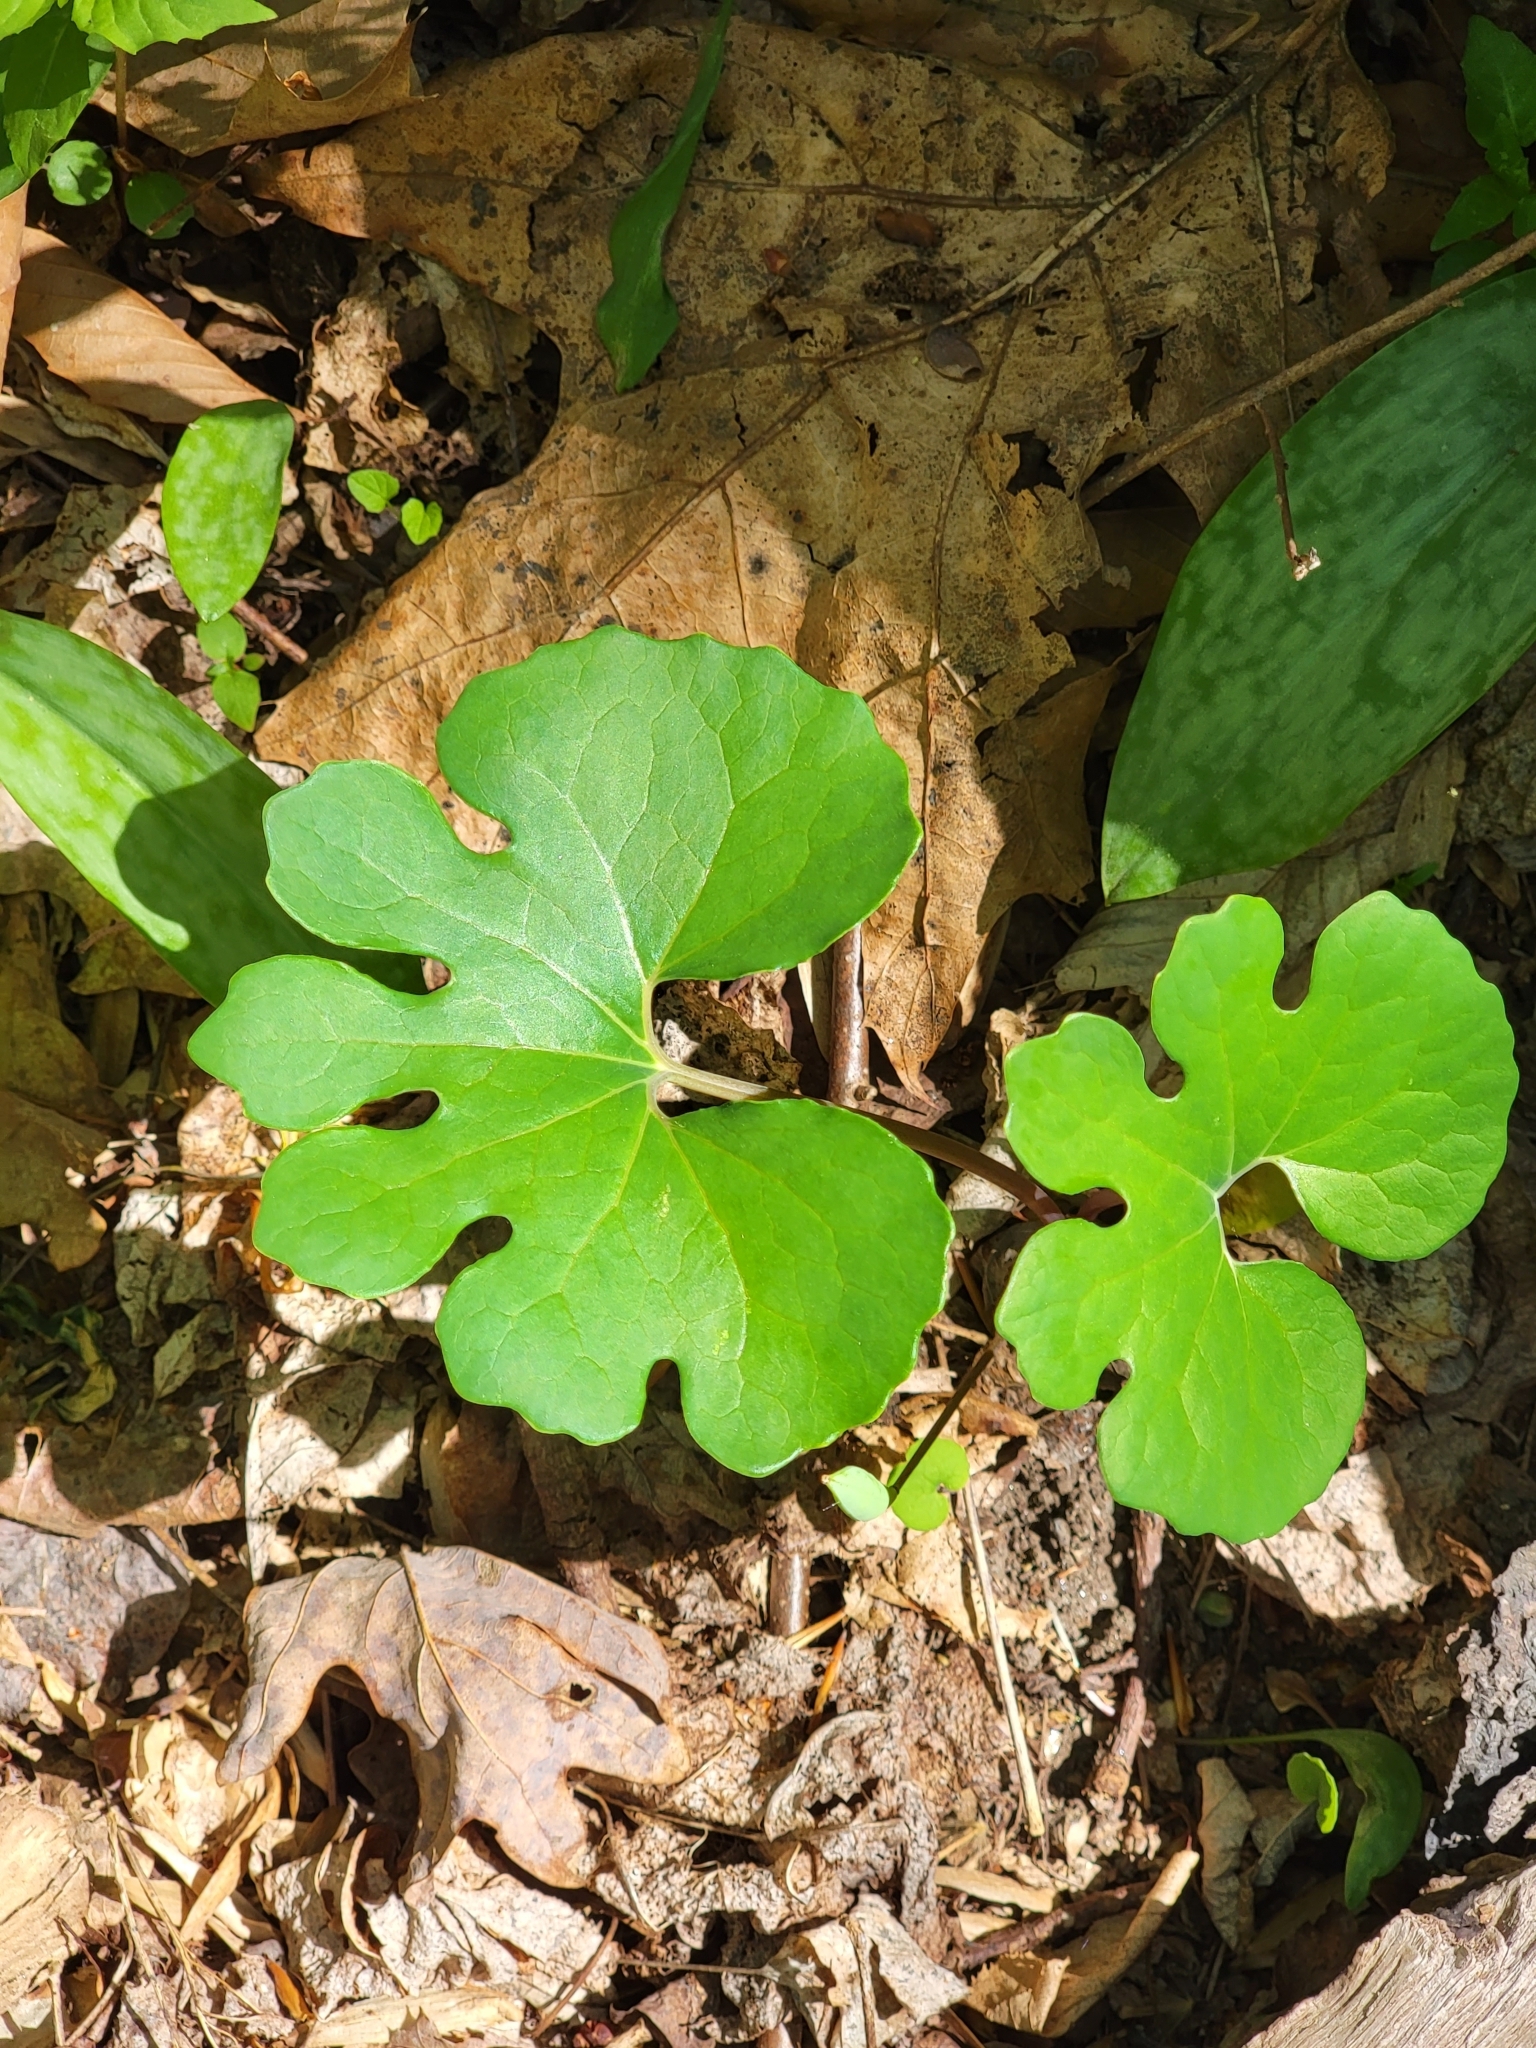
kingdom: Plantae
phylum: Tracheophyta
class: Magnoliopsida
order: Ranunculales
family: Papaveraceae
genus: Sanguinaria
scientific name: Sanguinaria canadensis
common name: Bloodroot
